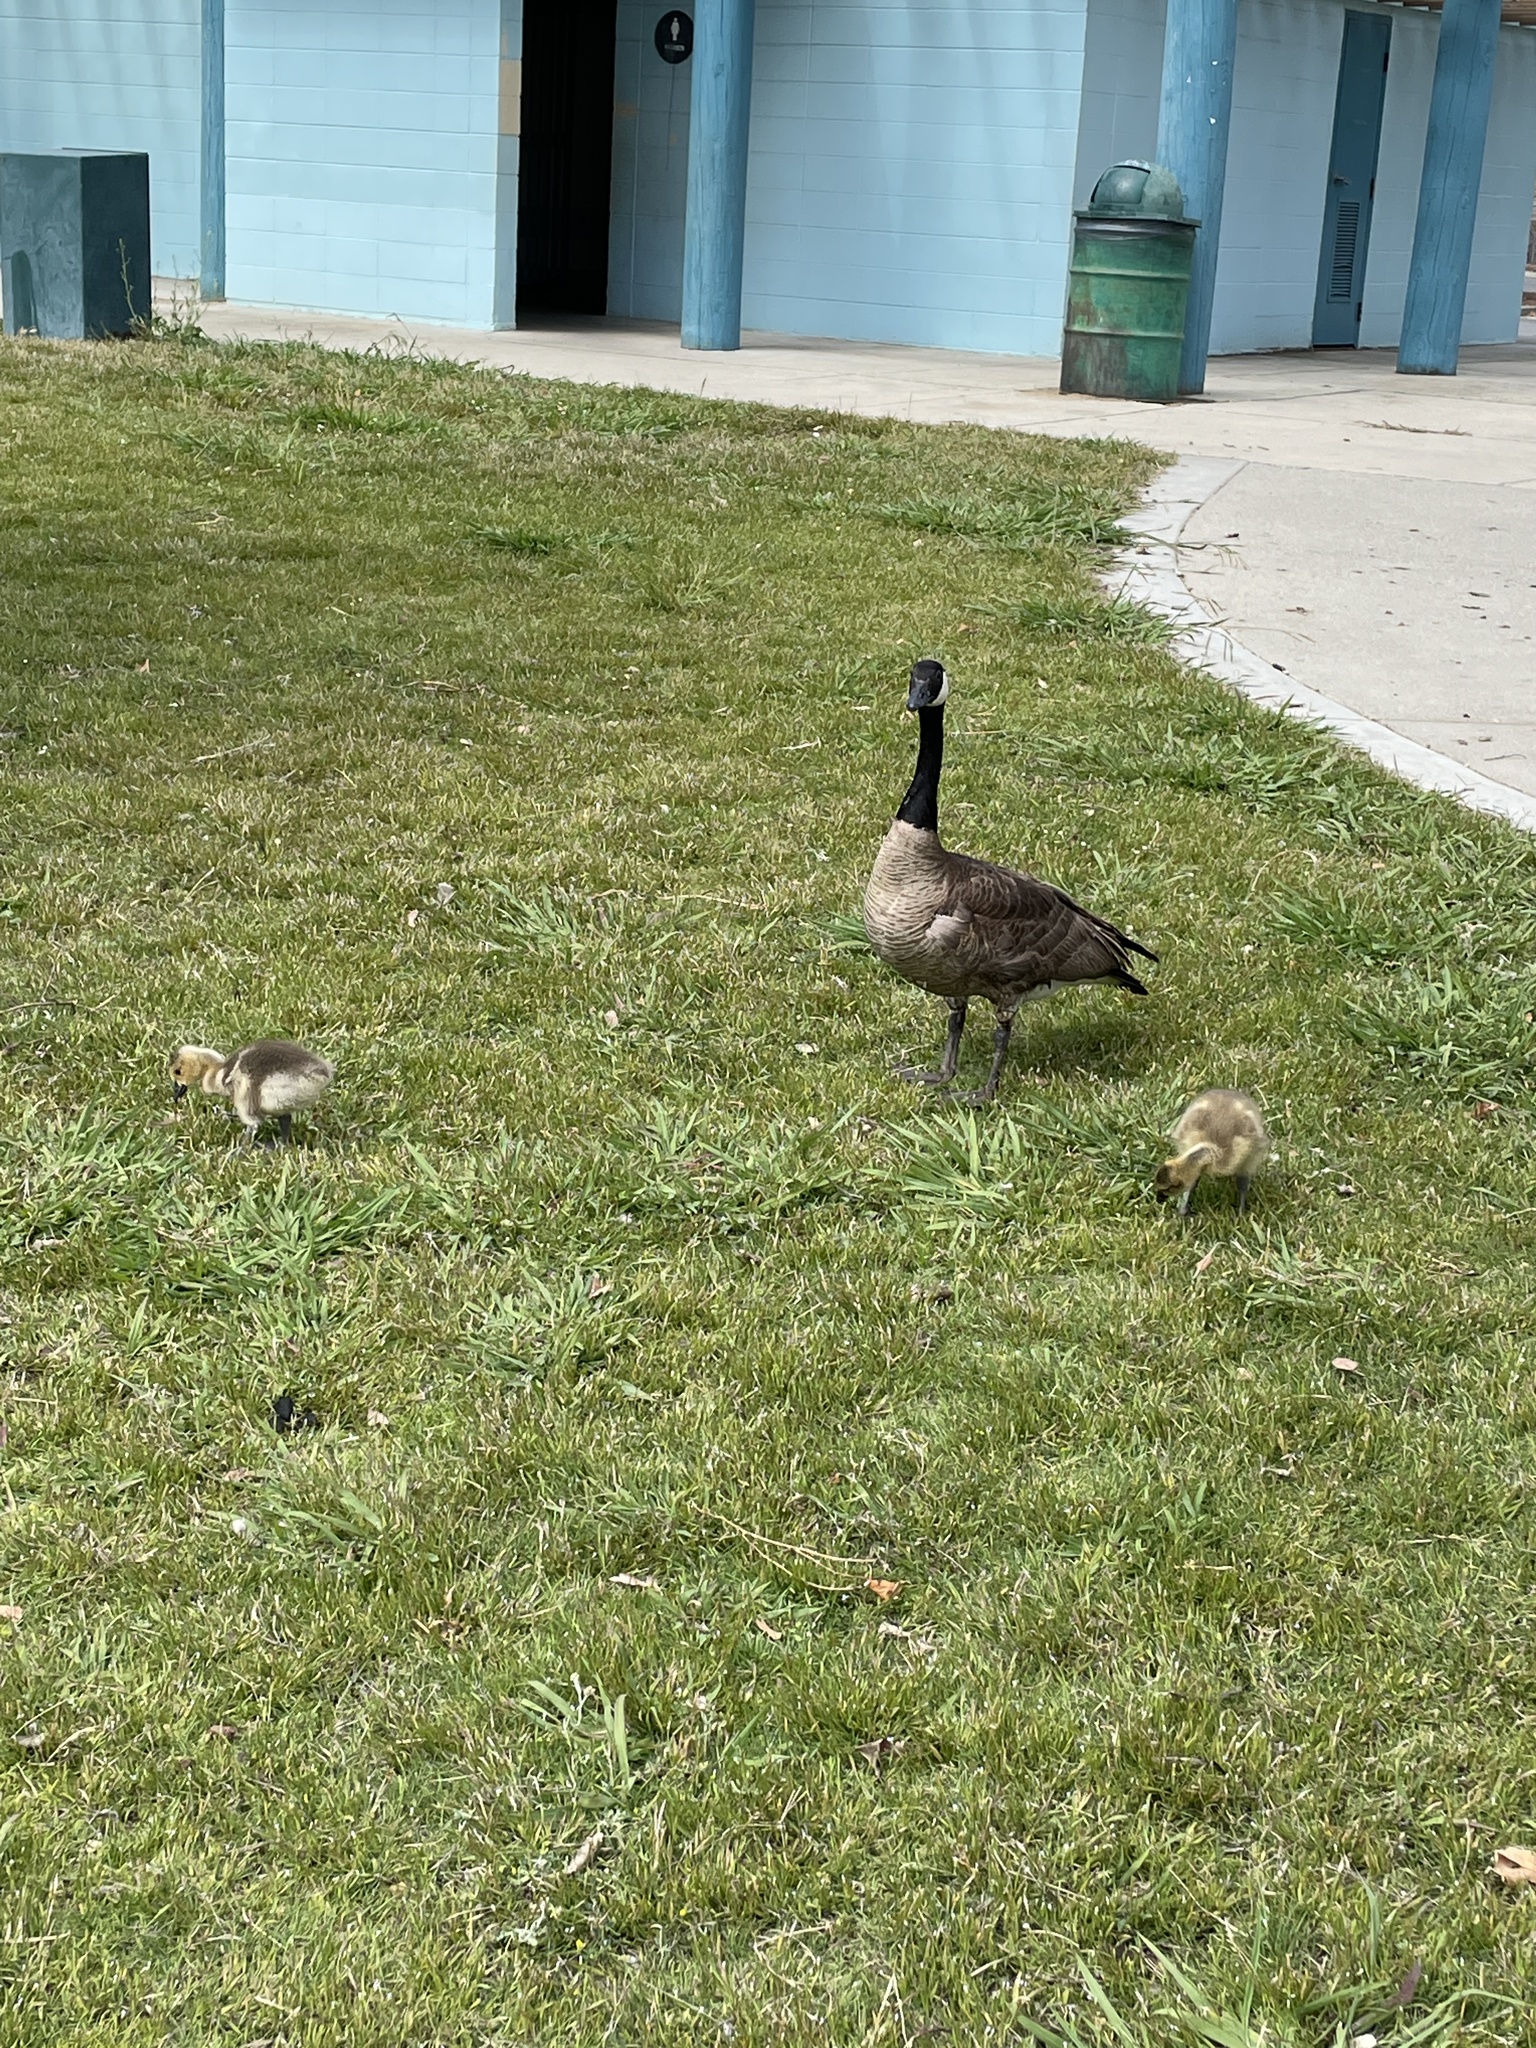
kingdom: Animalia
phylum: Chordata
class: Aves
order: Anseriformes
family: Anatidae
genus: Branta
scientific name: Branta canadensis
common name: Canada goose
